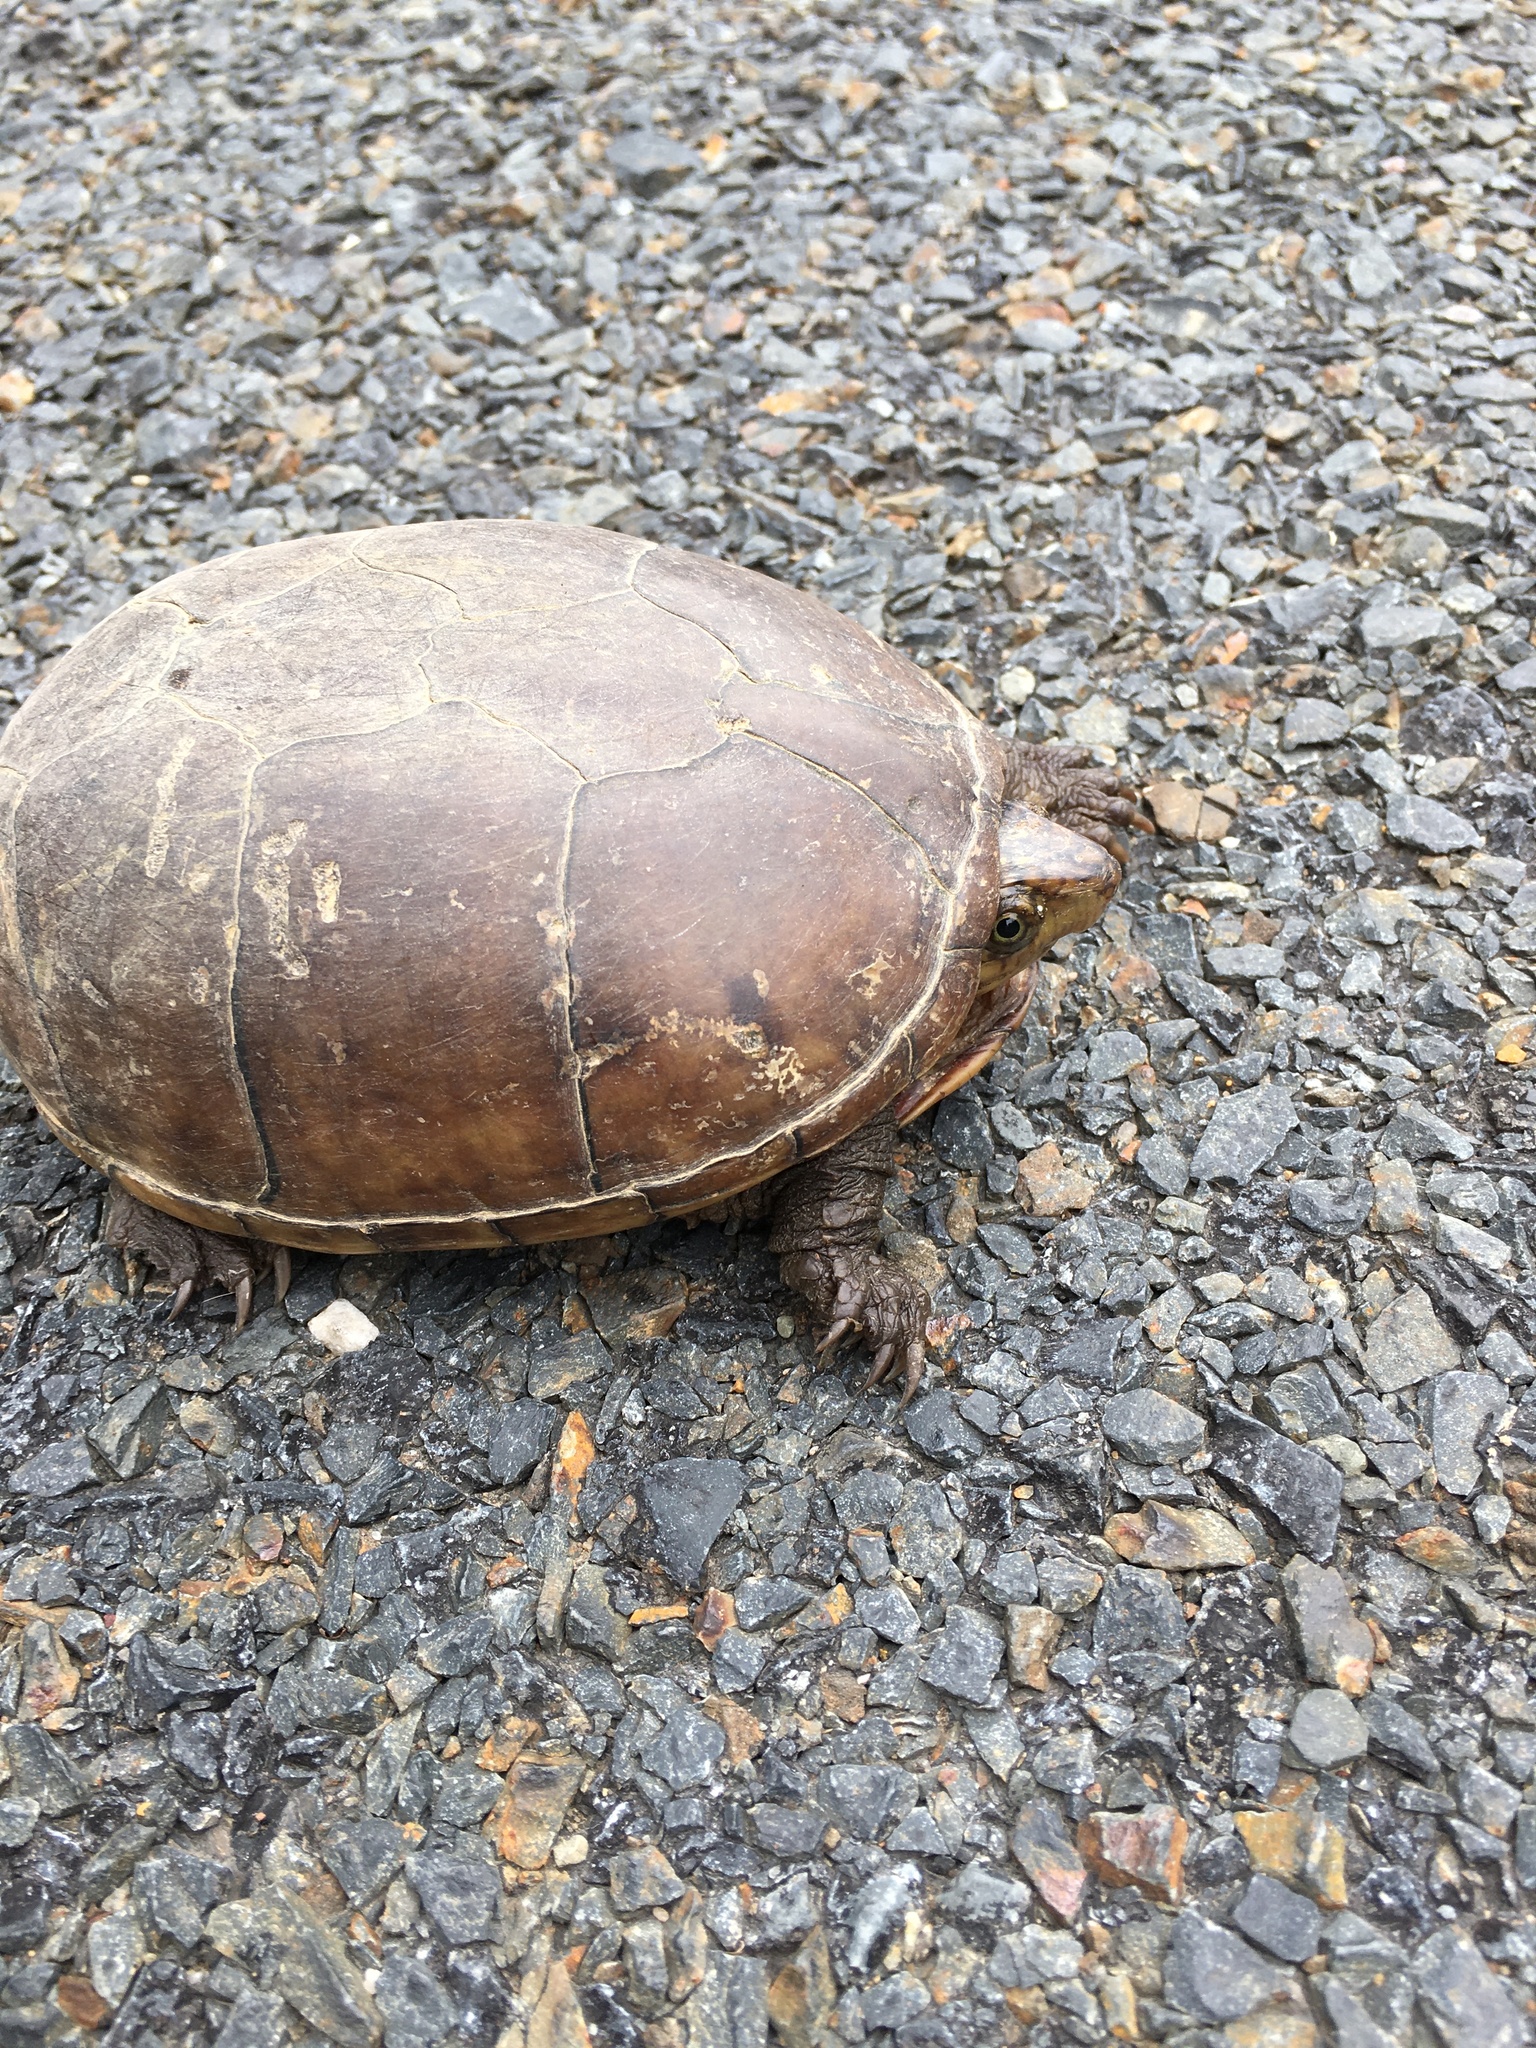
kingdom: Animalia
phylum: Chordata
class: Testudines
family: Kinosternidae
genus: Kinosternon
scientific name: Kinosternon subrubrum
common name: Eastern mud turtle
